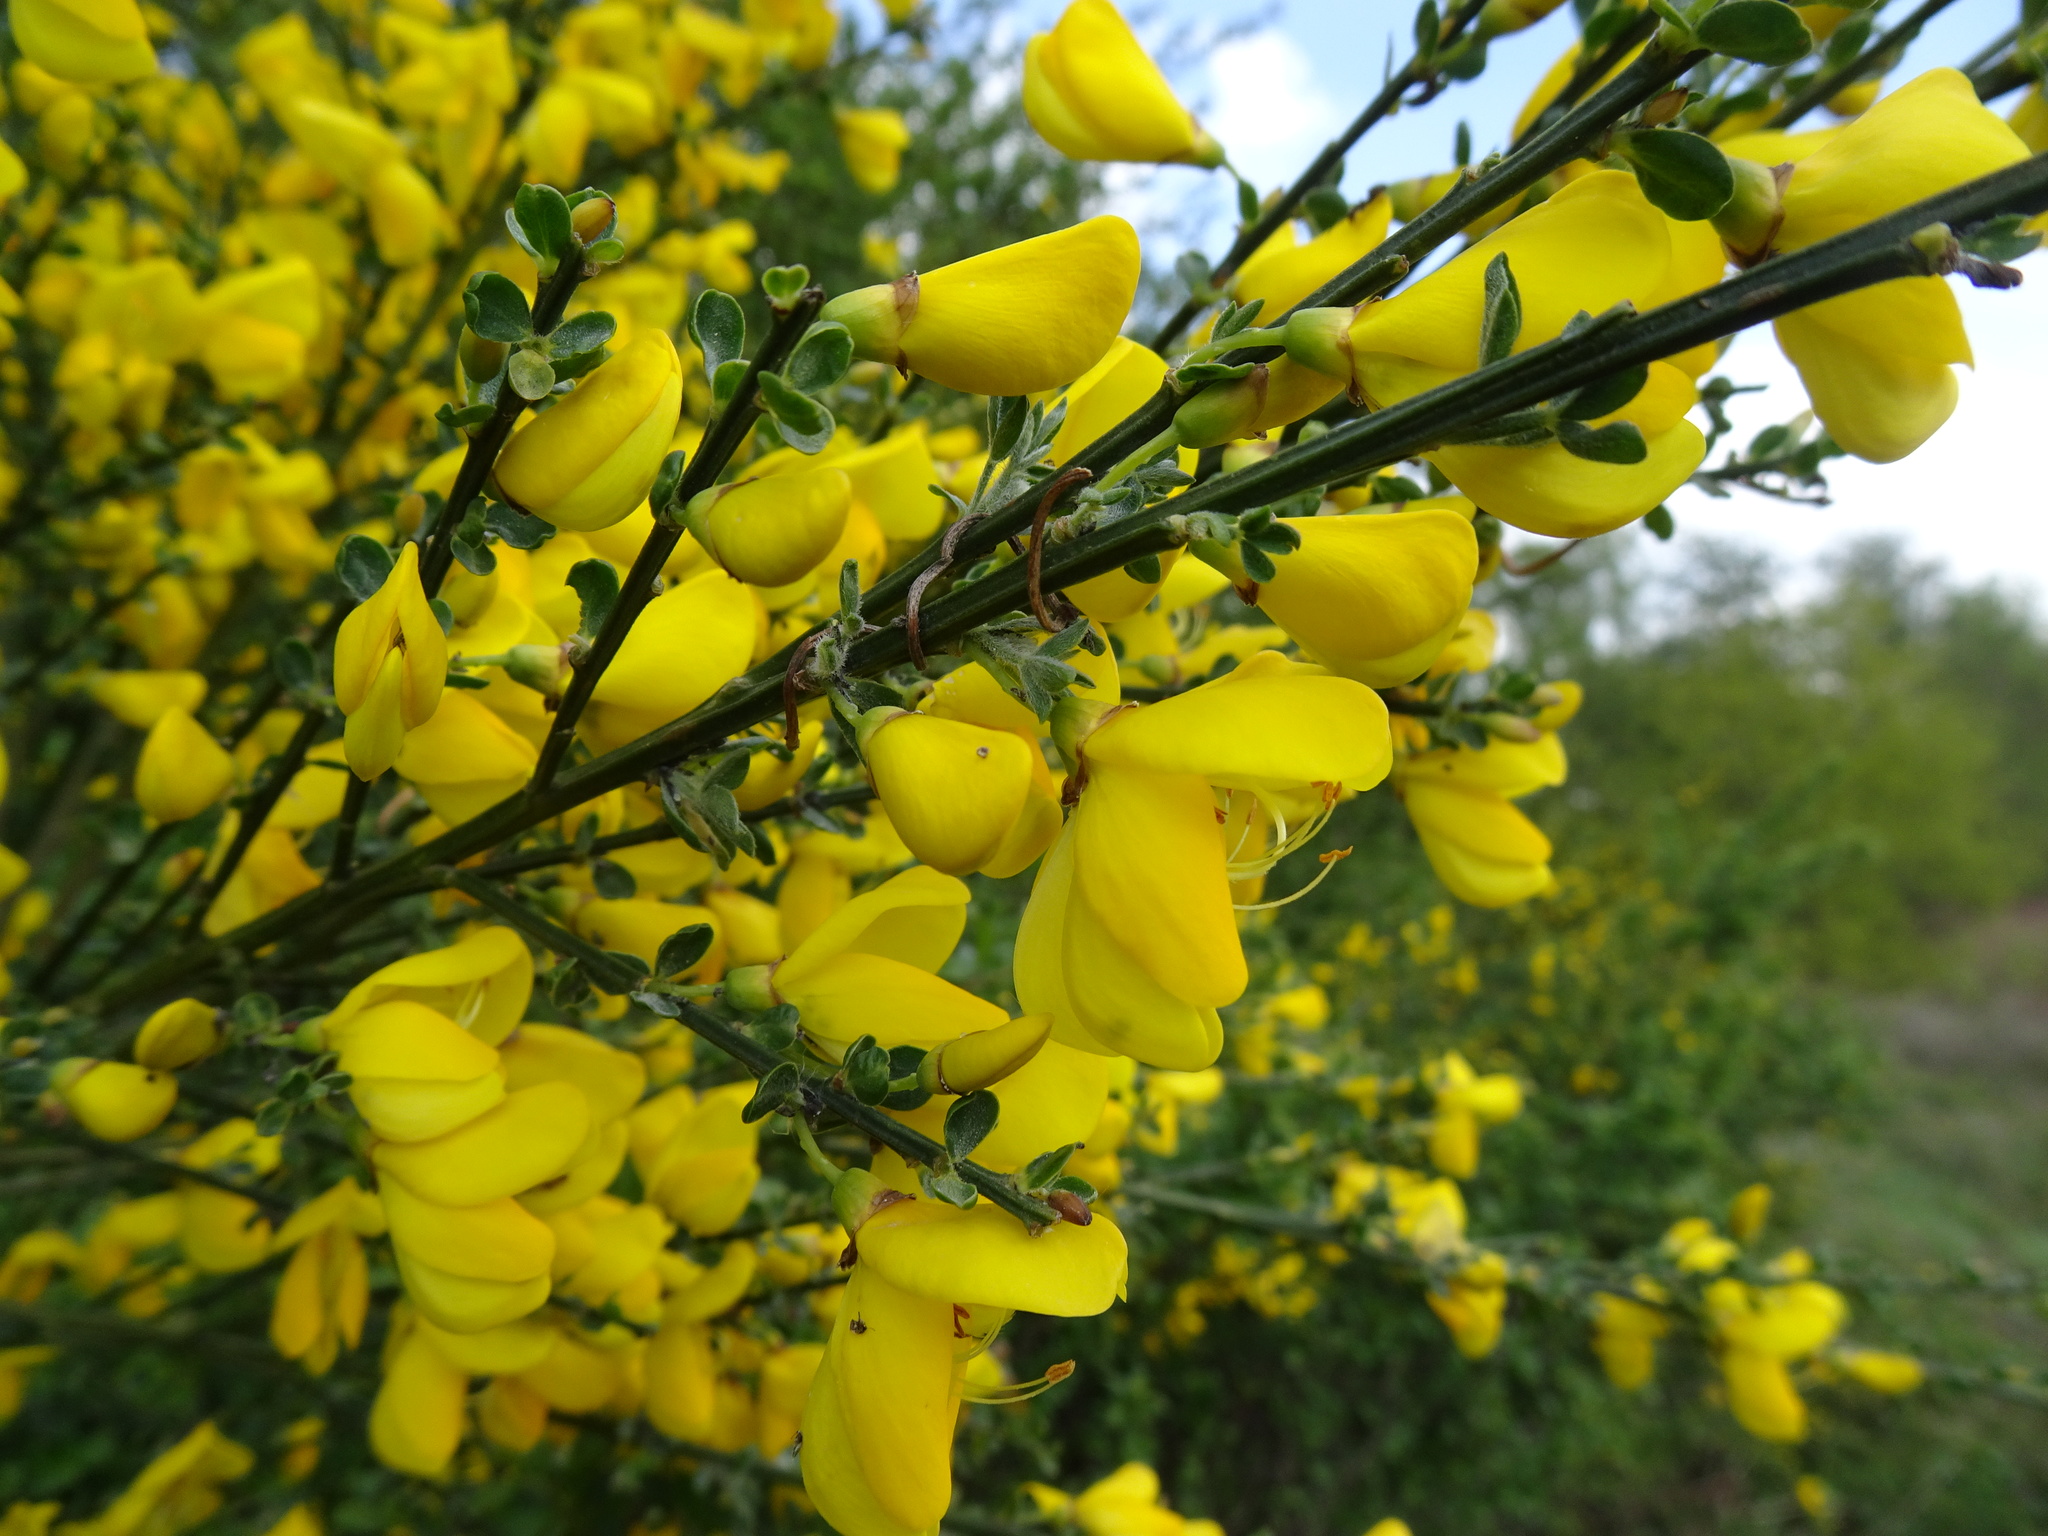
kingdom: Plantae
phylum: Tracheophyta
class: Magnoliopsida
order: Fabales
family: Fabaceae
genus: Cytisus
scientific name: Cytisus scoparius
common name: Scotch broom
